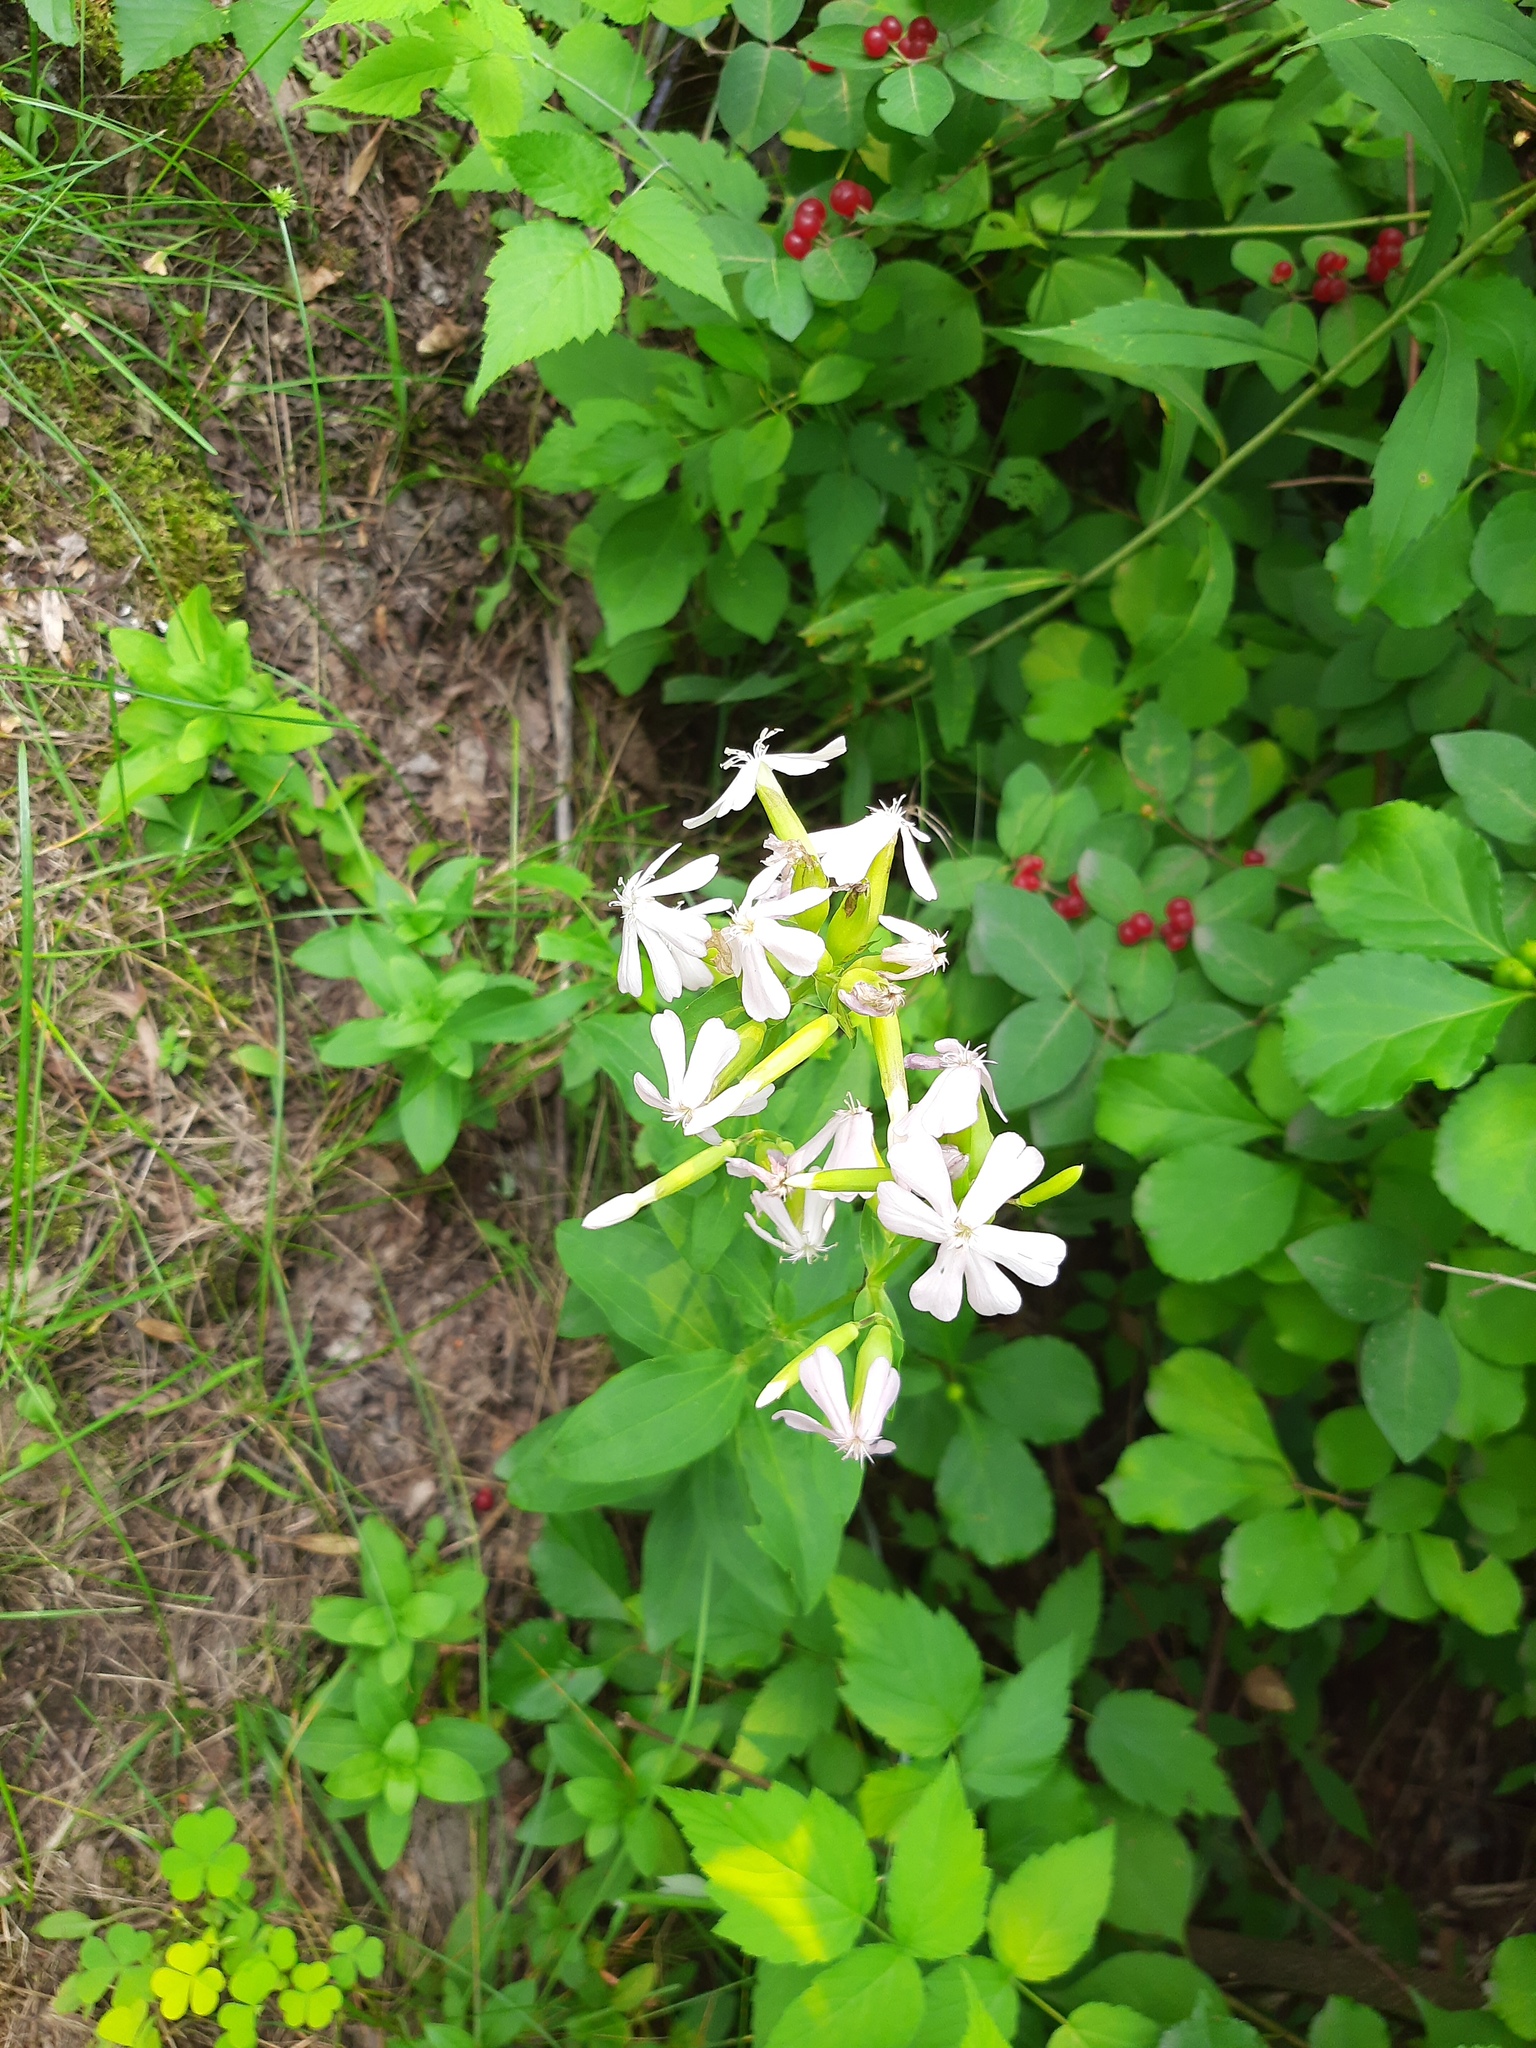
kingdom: Plantae
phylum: Tracheophyta
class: Magnoliopsida
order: Caryophyllales
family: Caryophyllaceae
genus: Saponaria
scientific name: Saponaria officinalis
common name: Soapwort
